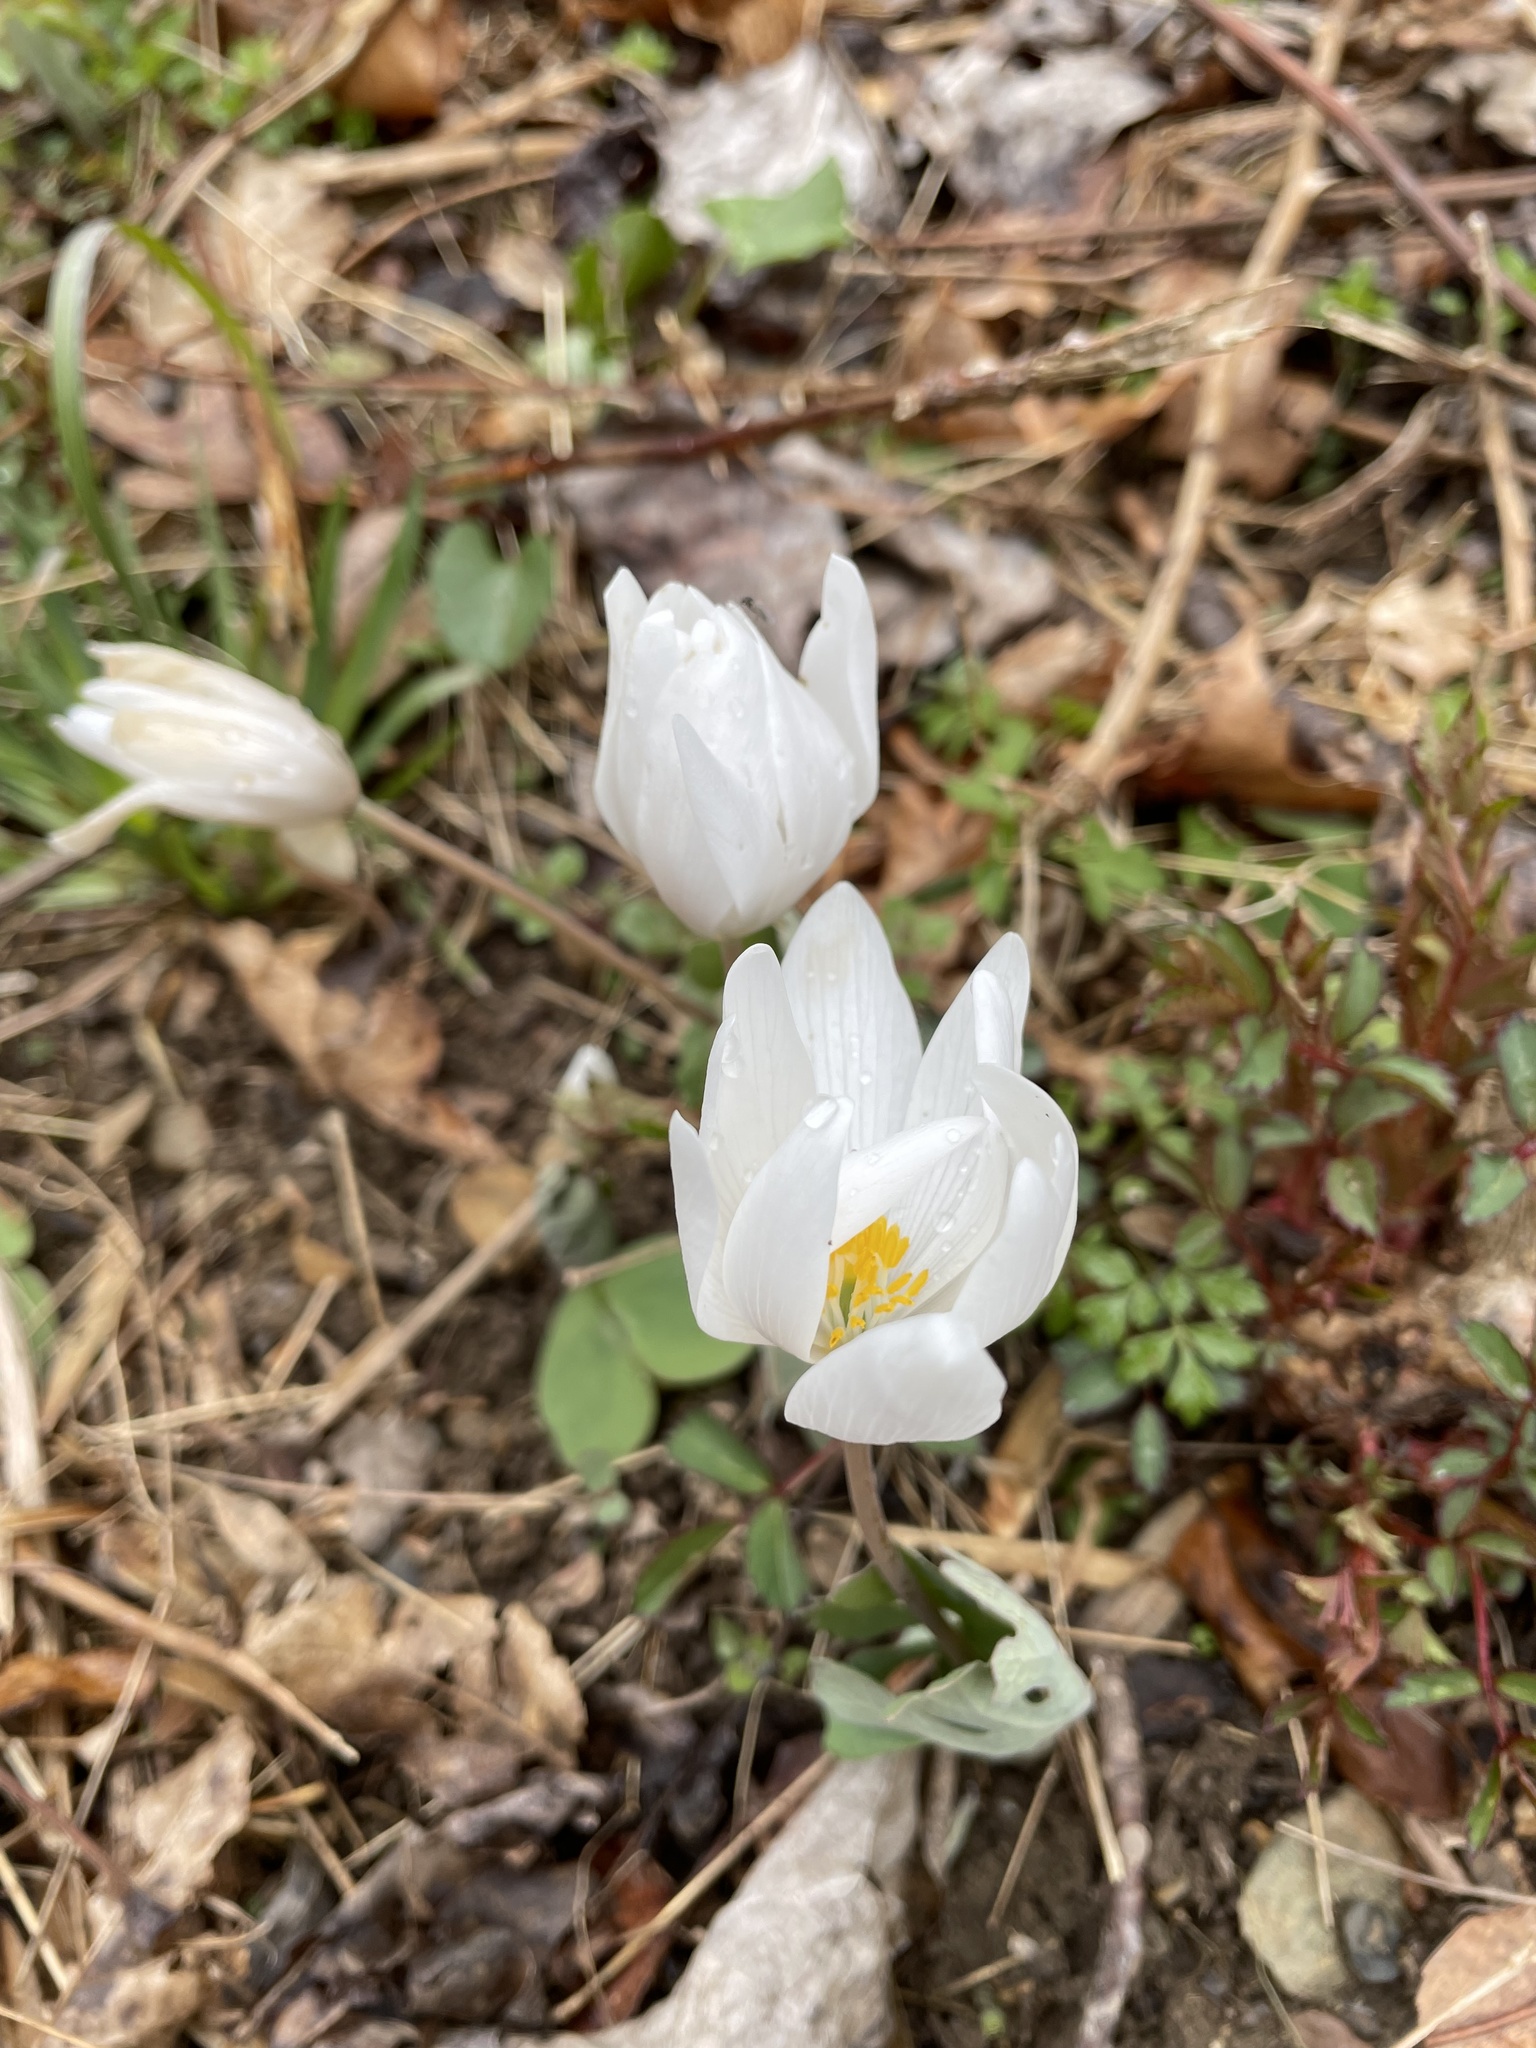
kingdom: Plantae
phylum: Tracheophyta
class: Magnoliopsida
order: Ranunculales
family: Papaveraceae
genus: Sanguinaria
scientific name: Sanguinaria canadensis
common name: Bloodroot
